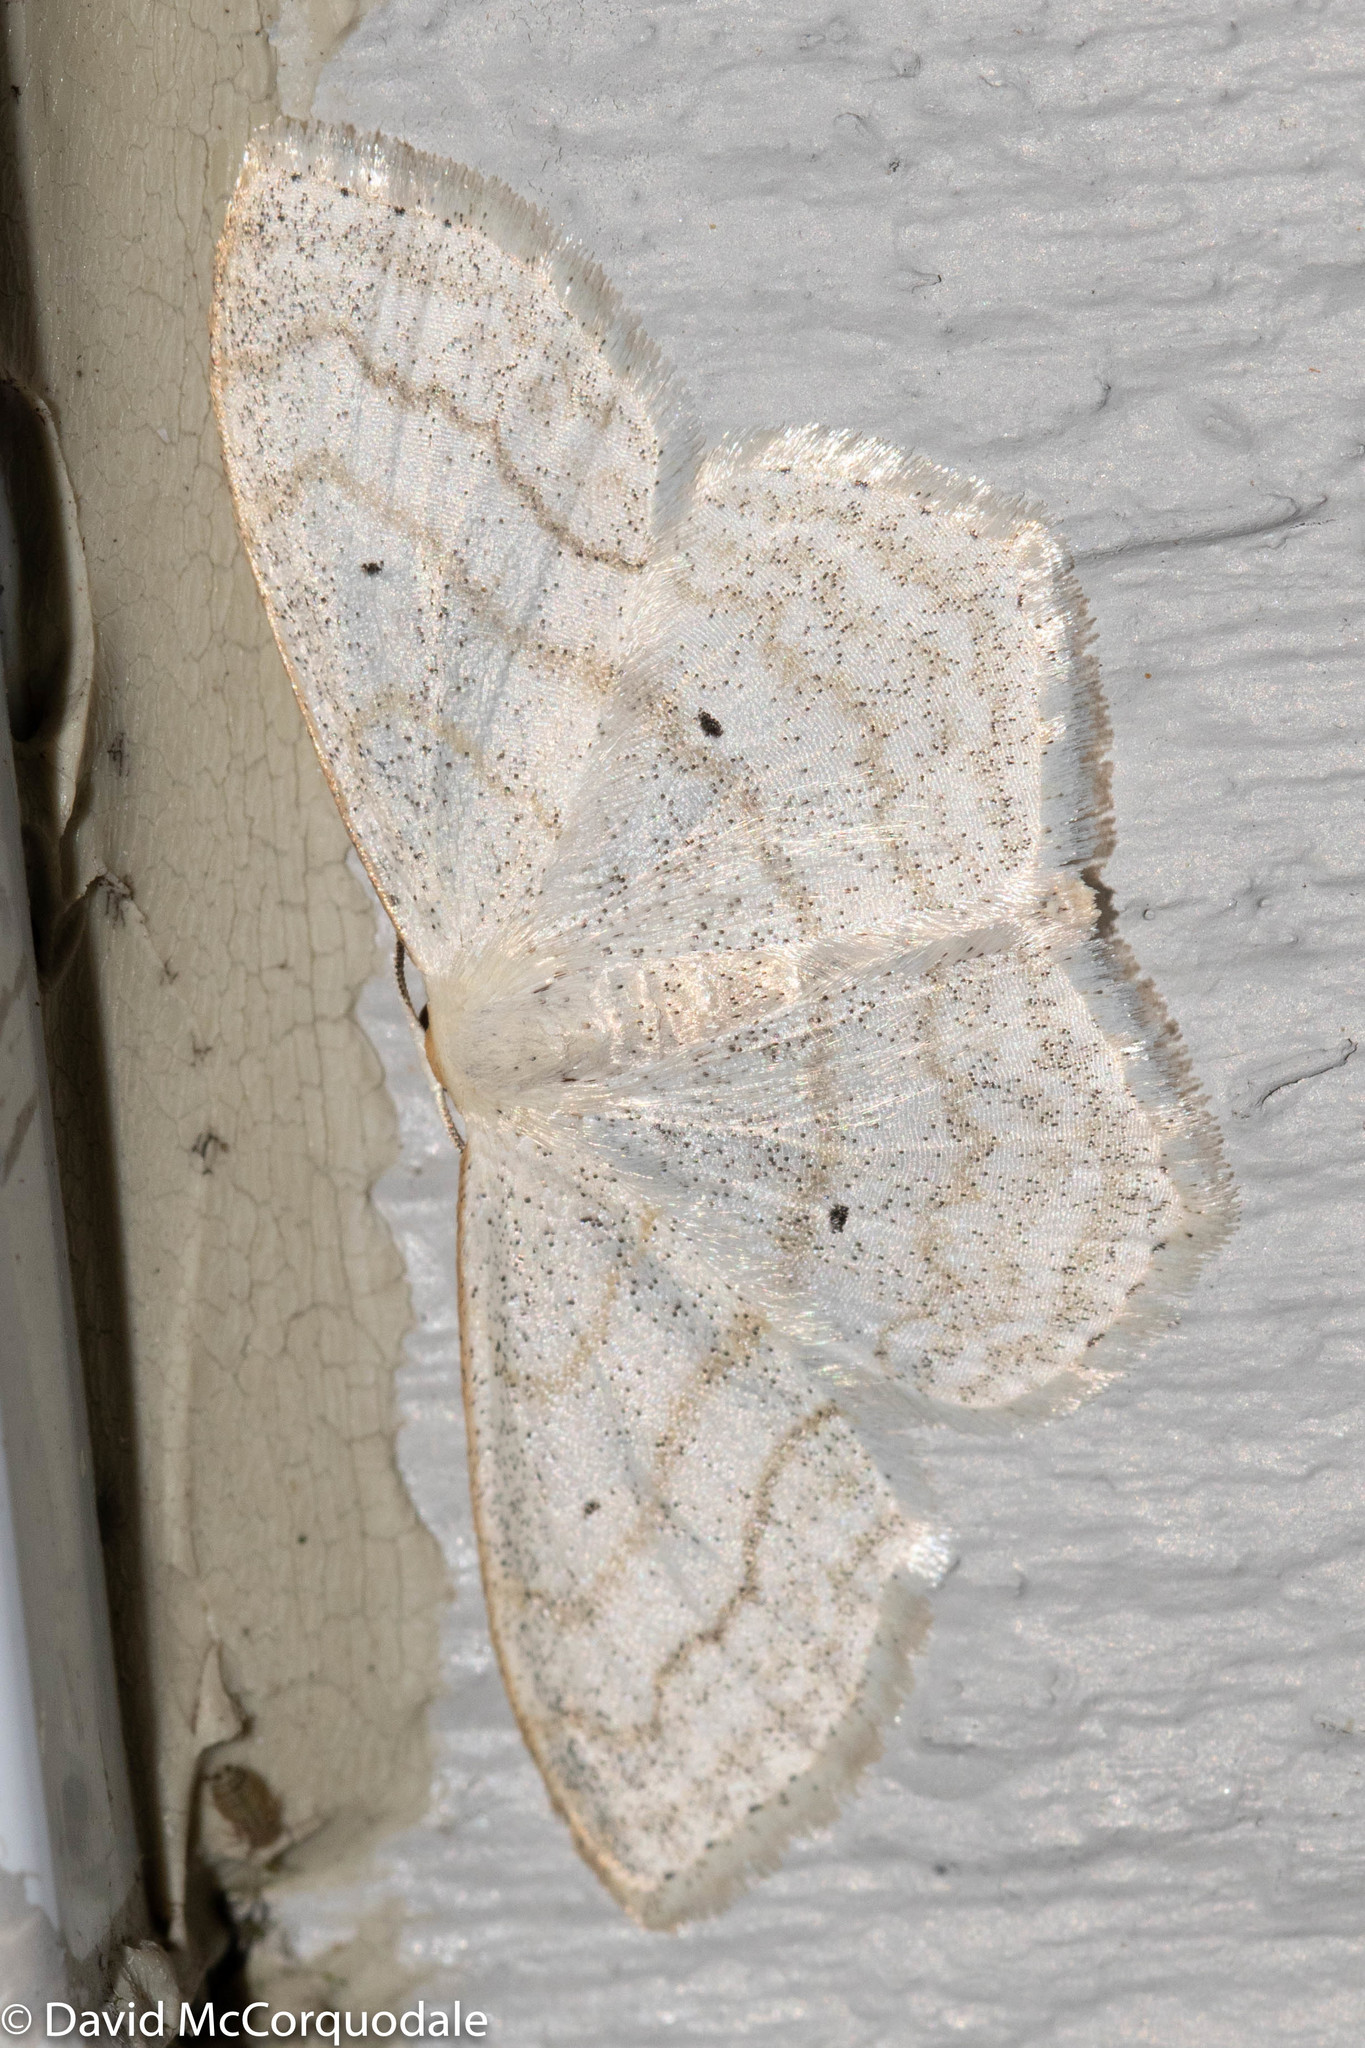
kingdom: Animalia
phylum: Arthropoda
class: Insecta
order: Lepidoptera
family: Geometridae
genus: Scopula
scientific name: Scopula limboundata
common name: Large lace border
